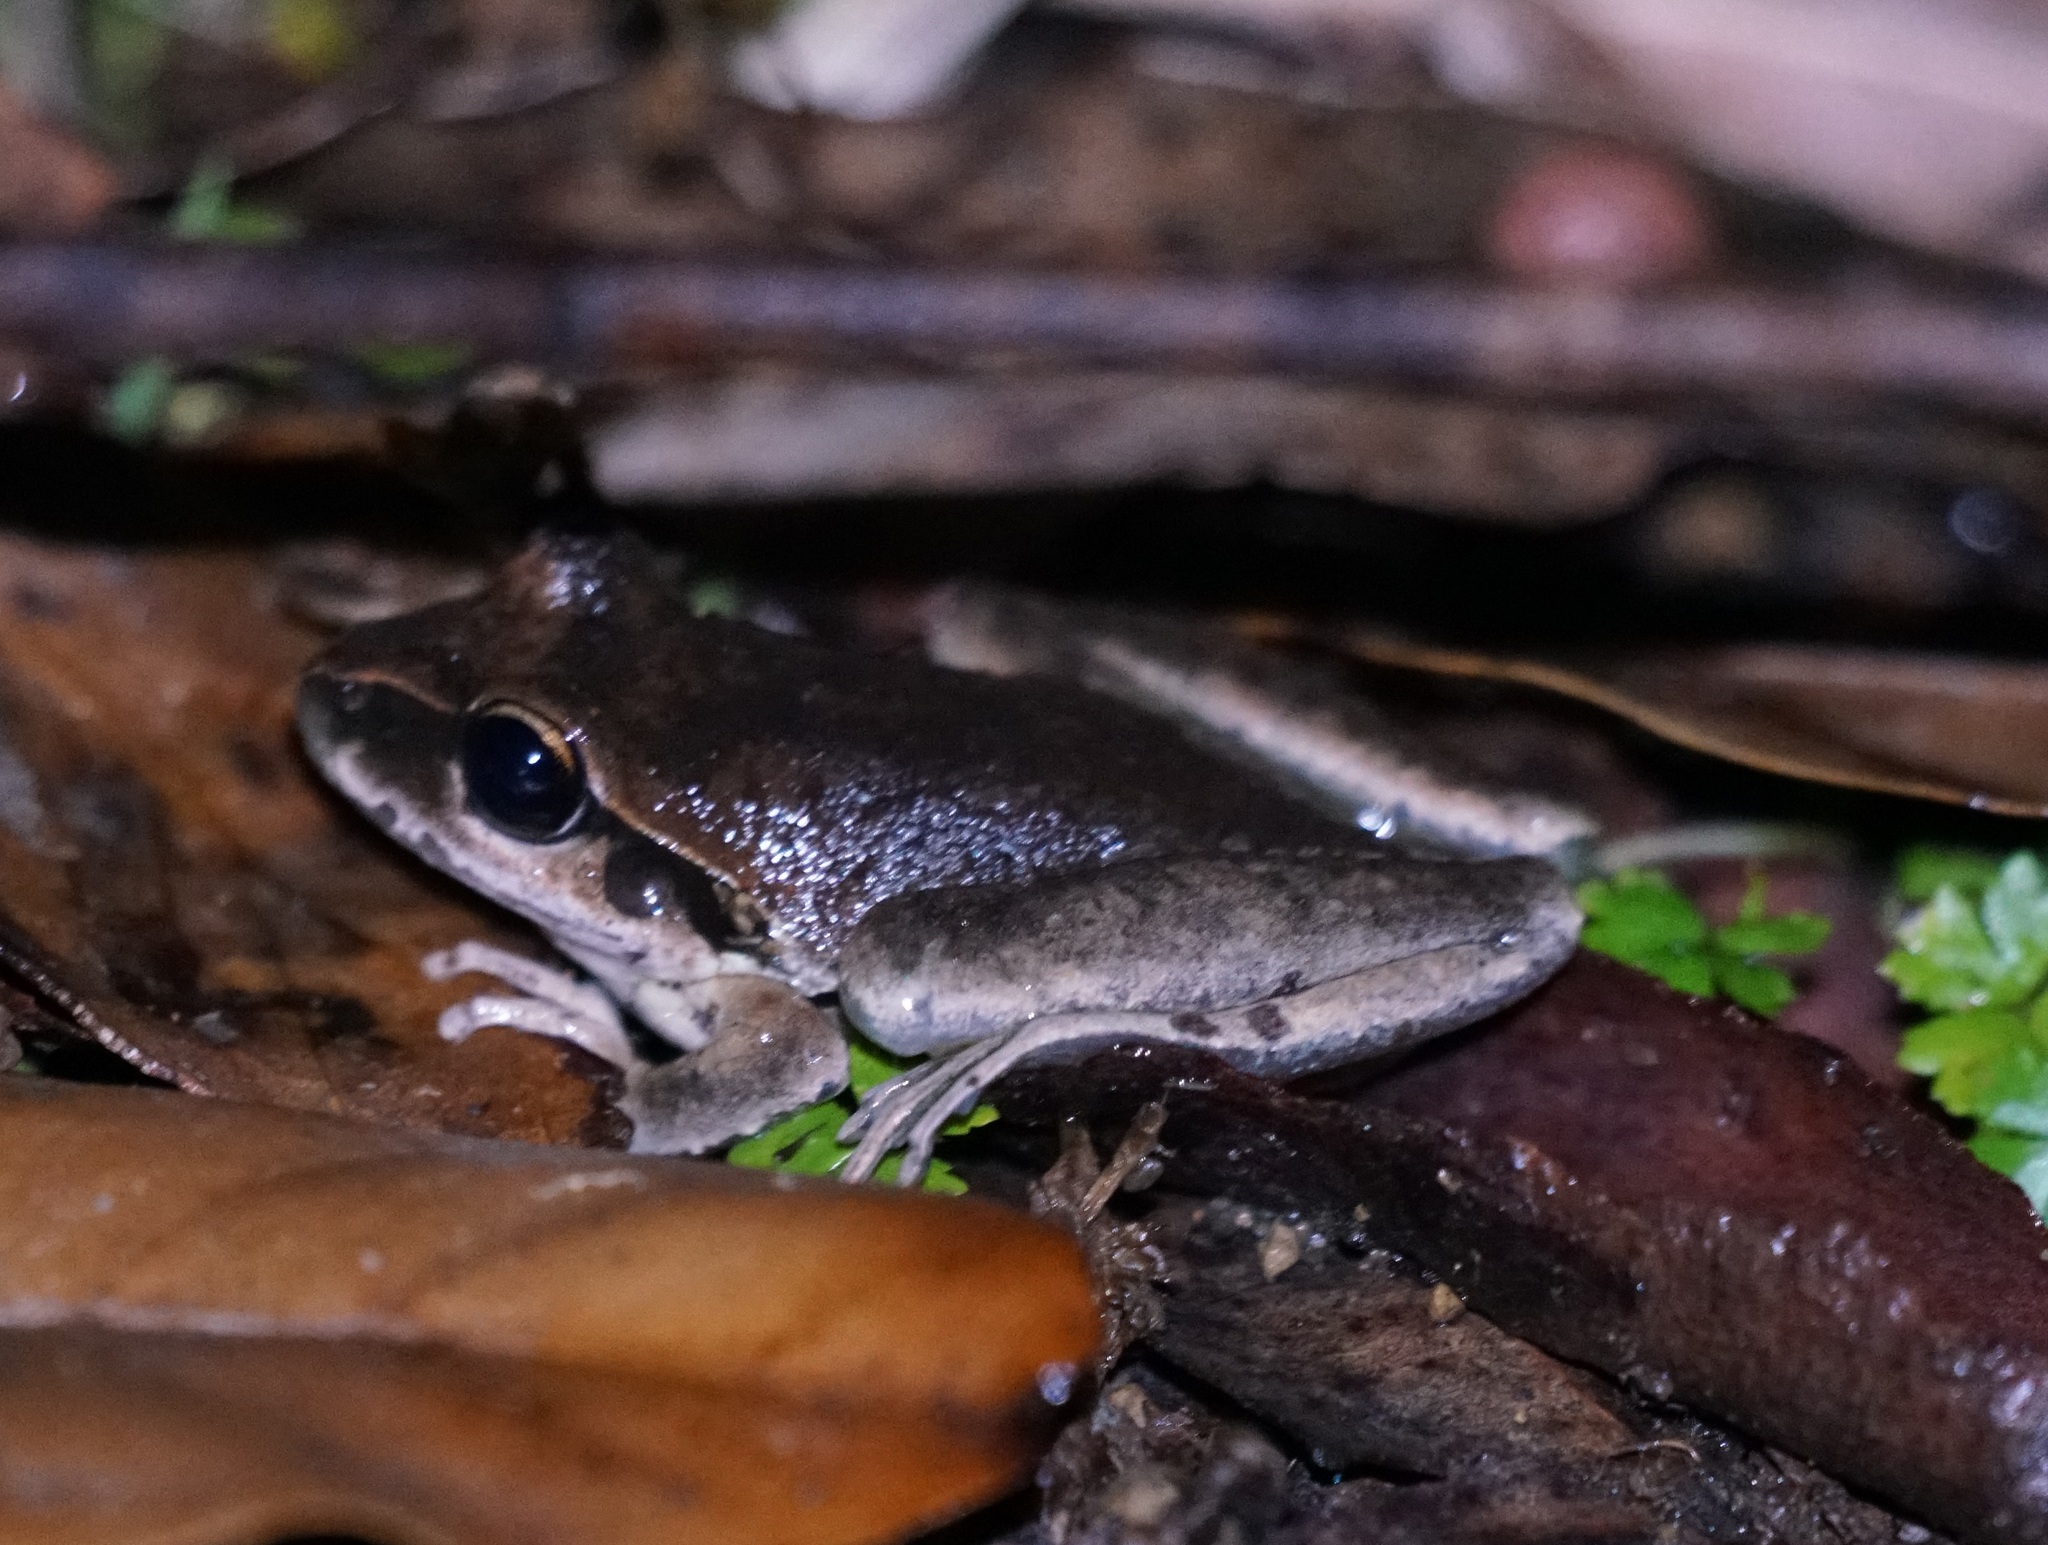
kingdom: Animalia
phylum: Chordata
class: Amphibia
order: Anura
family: Pelodryadidae
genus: Ranoidea
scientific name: Ranoidea wilcoxii
